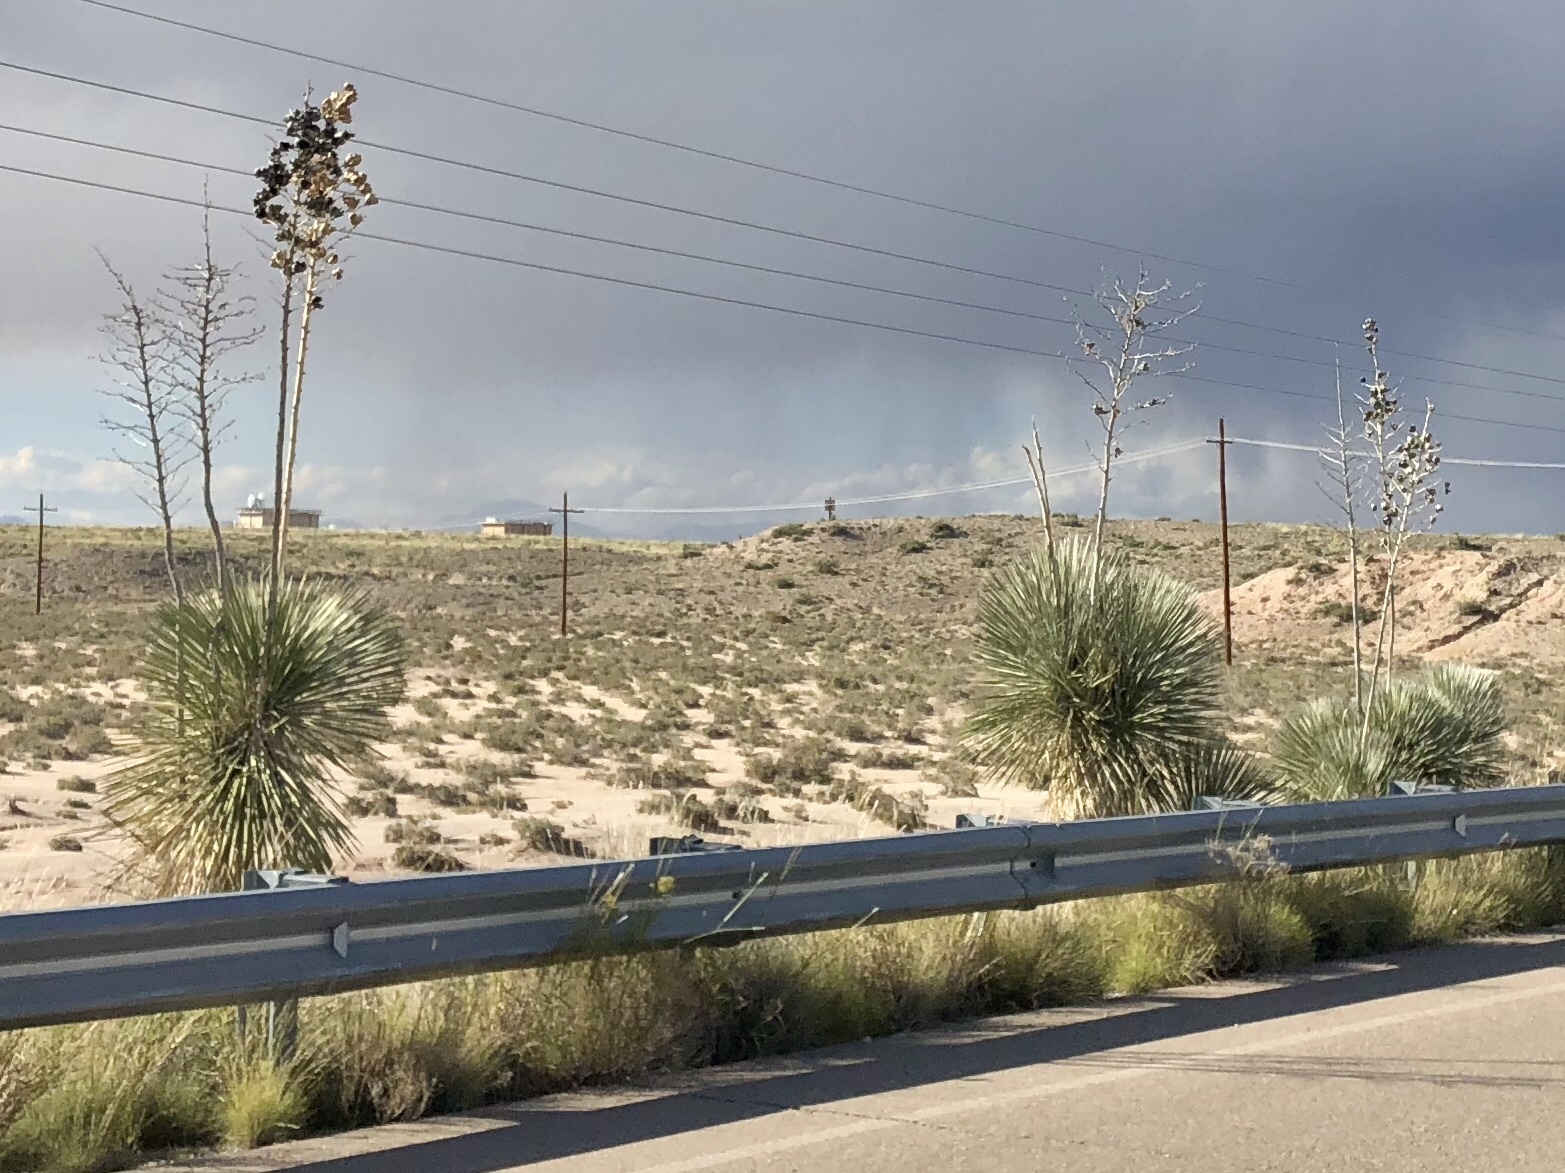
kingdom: Plantae
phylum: Tracheophyta
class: Liliopsida
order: Asparagales
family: Asparagaceae
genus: Yucca
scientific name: Yucca elata
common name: Palmella
